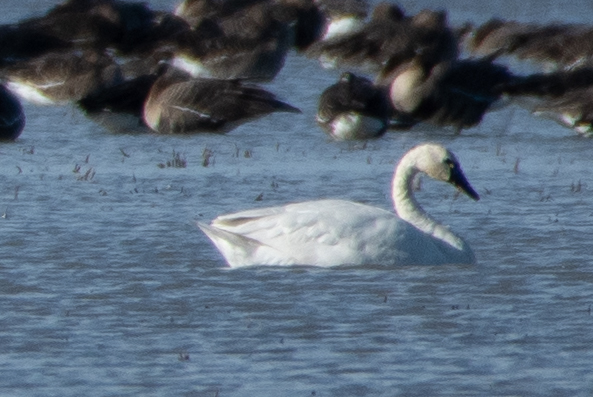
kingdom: Animalia
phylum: Chordata
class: Aves
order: Anseriformes
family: Anatidae
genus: Cygnus
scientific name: Cygnus columbianus
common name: Tundra swan
